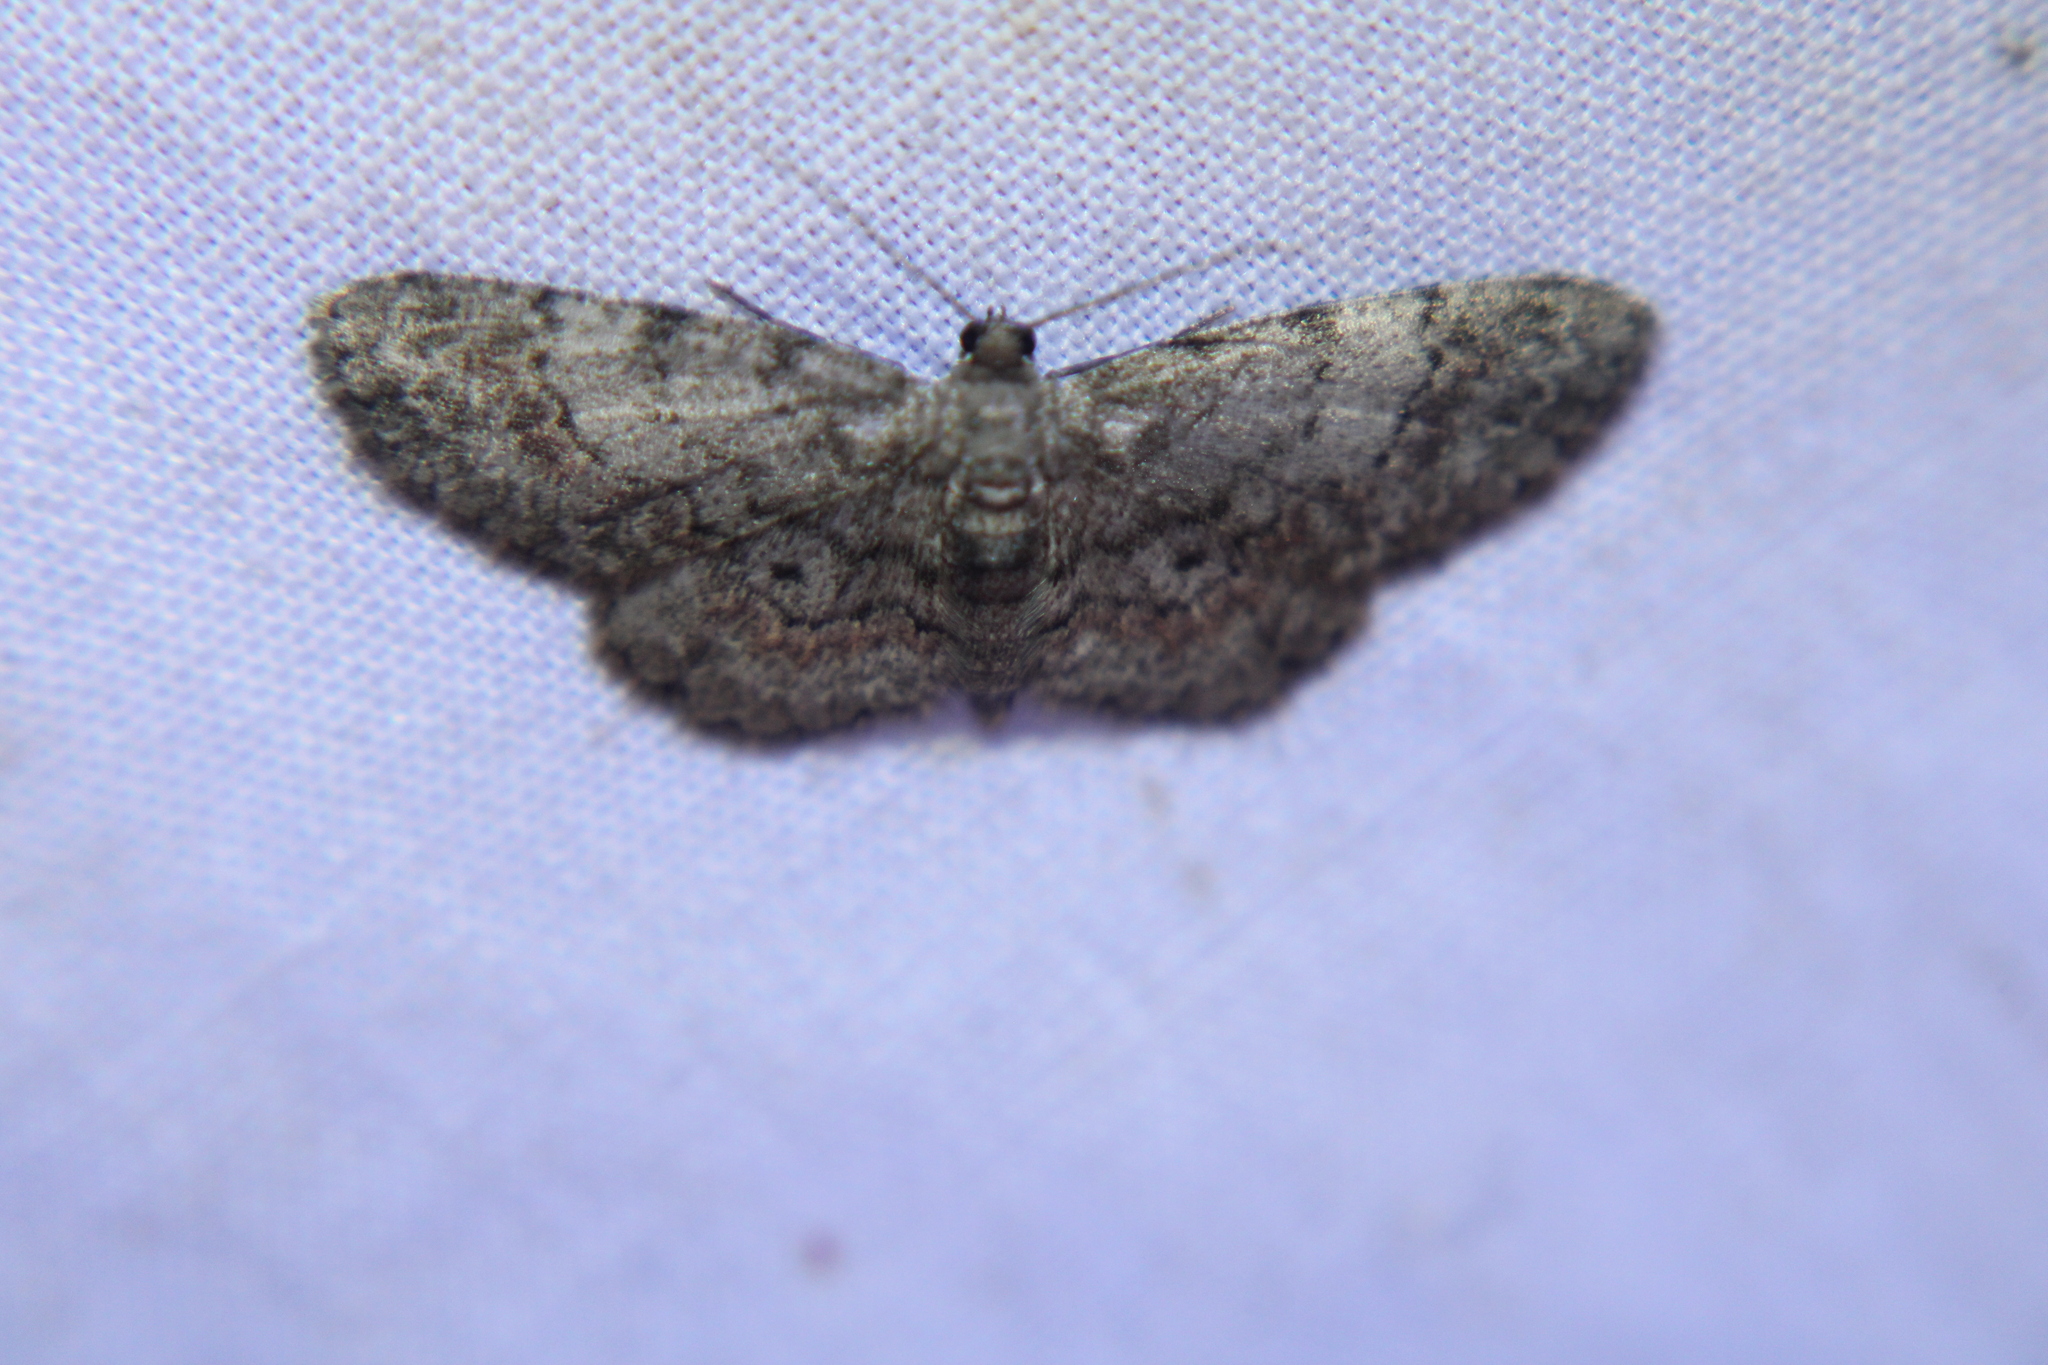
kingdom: Animalia
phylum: Arthropoda
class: Insecta
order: Lepidoptera
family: Geometridae
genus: Glenoides
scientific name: Glenoides texanaria
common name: Texas gray
